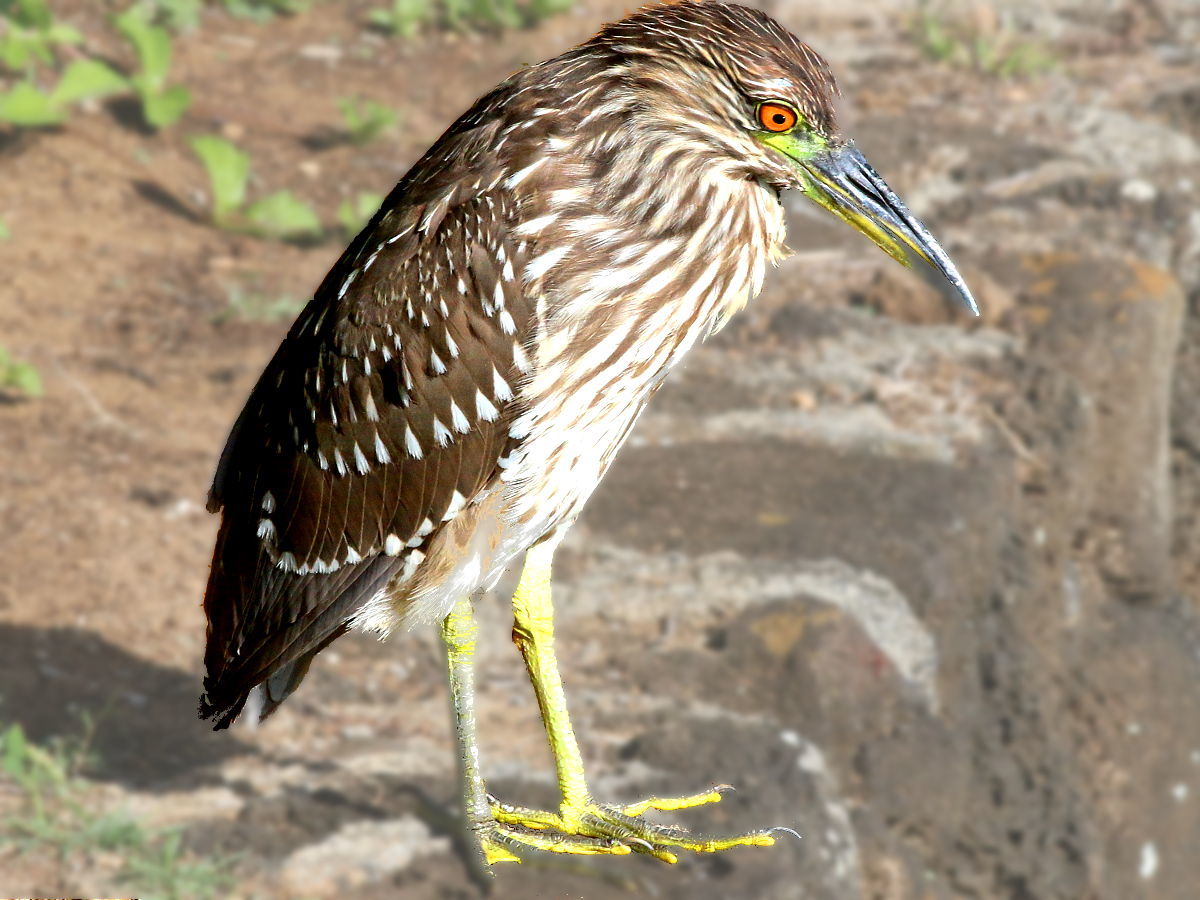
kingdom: Animalia
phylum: Chordata
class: Aves
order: Pelecaniformes
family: Ardeidae
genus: Nycticorax
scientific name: Nycticorax nycticorax
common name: Black-crowned night heron
